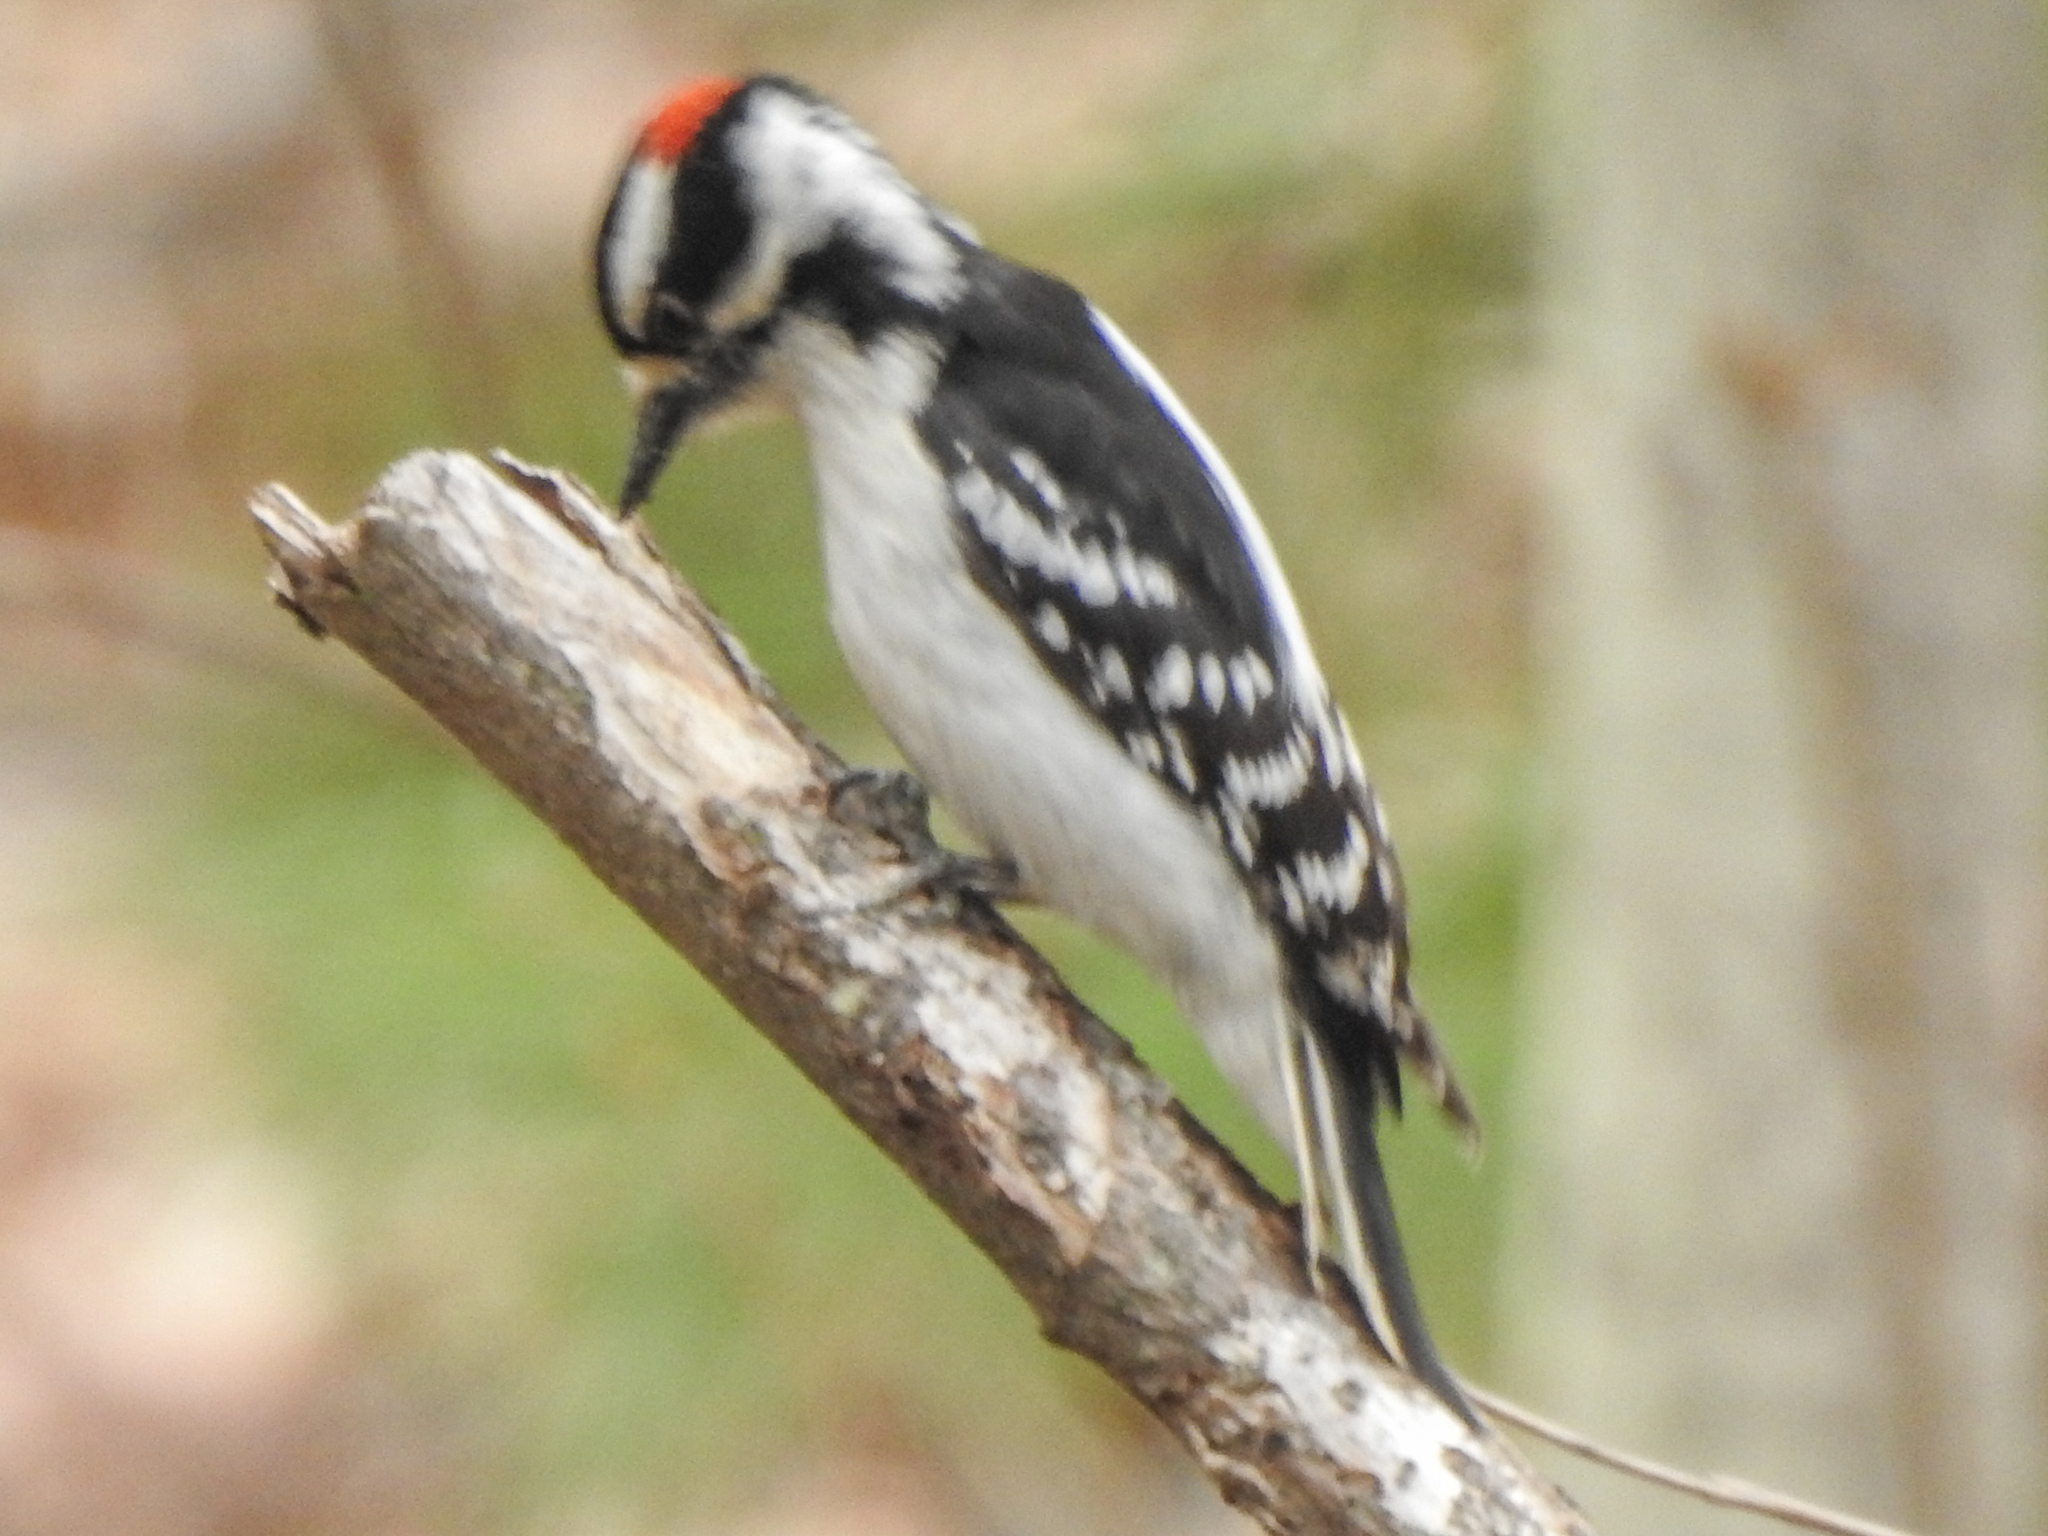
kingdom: Animalia
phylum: Chordata
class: Aves
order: Piciformes
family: Picidae
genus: Dryobates
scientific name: Dryobates pubescens
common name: Downy woodpecker
